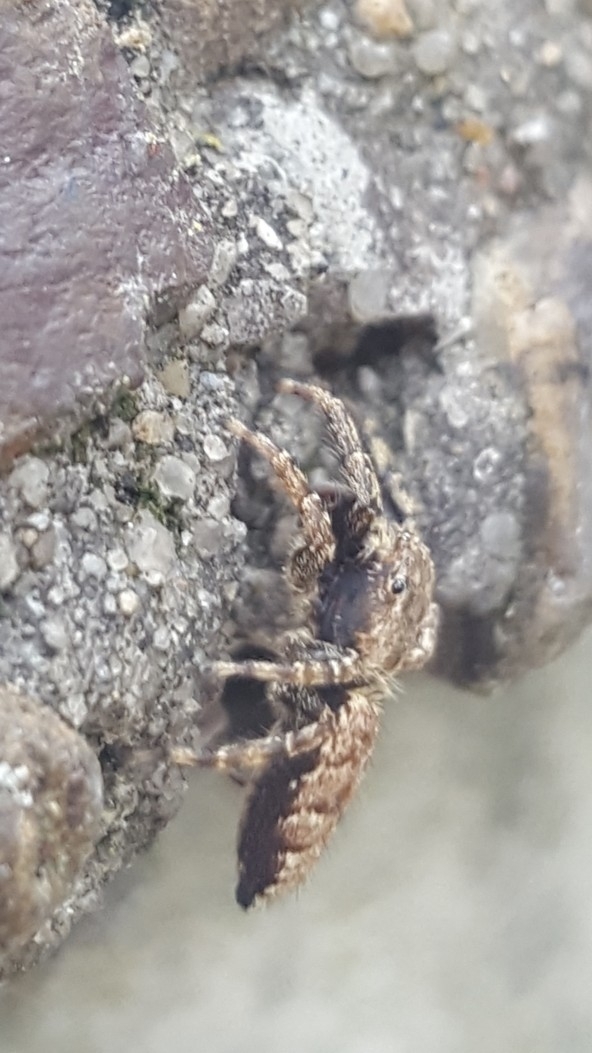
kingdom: Animalia
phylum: Arthropoda
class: Arachnida
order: Araneae
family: Salticidae
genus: Marpissa
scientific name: Marpissa muscosa
